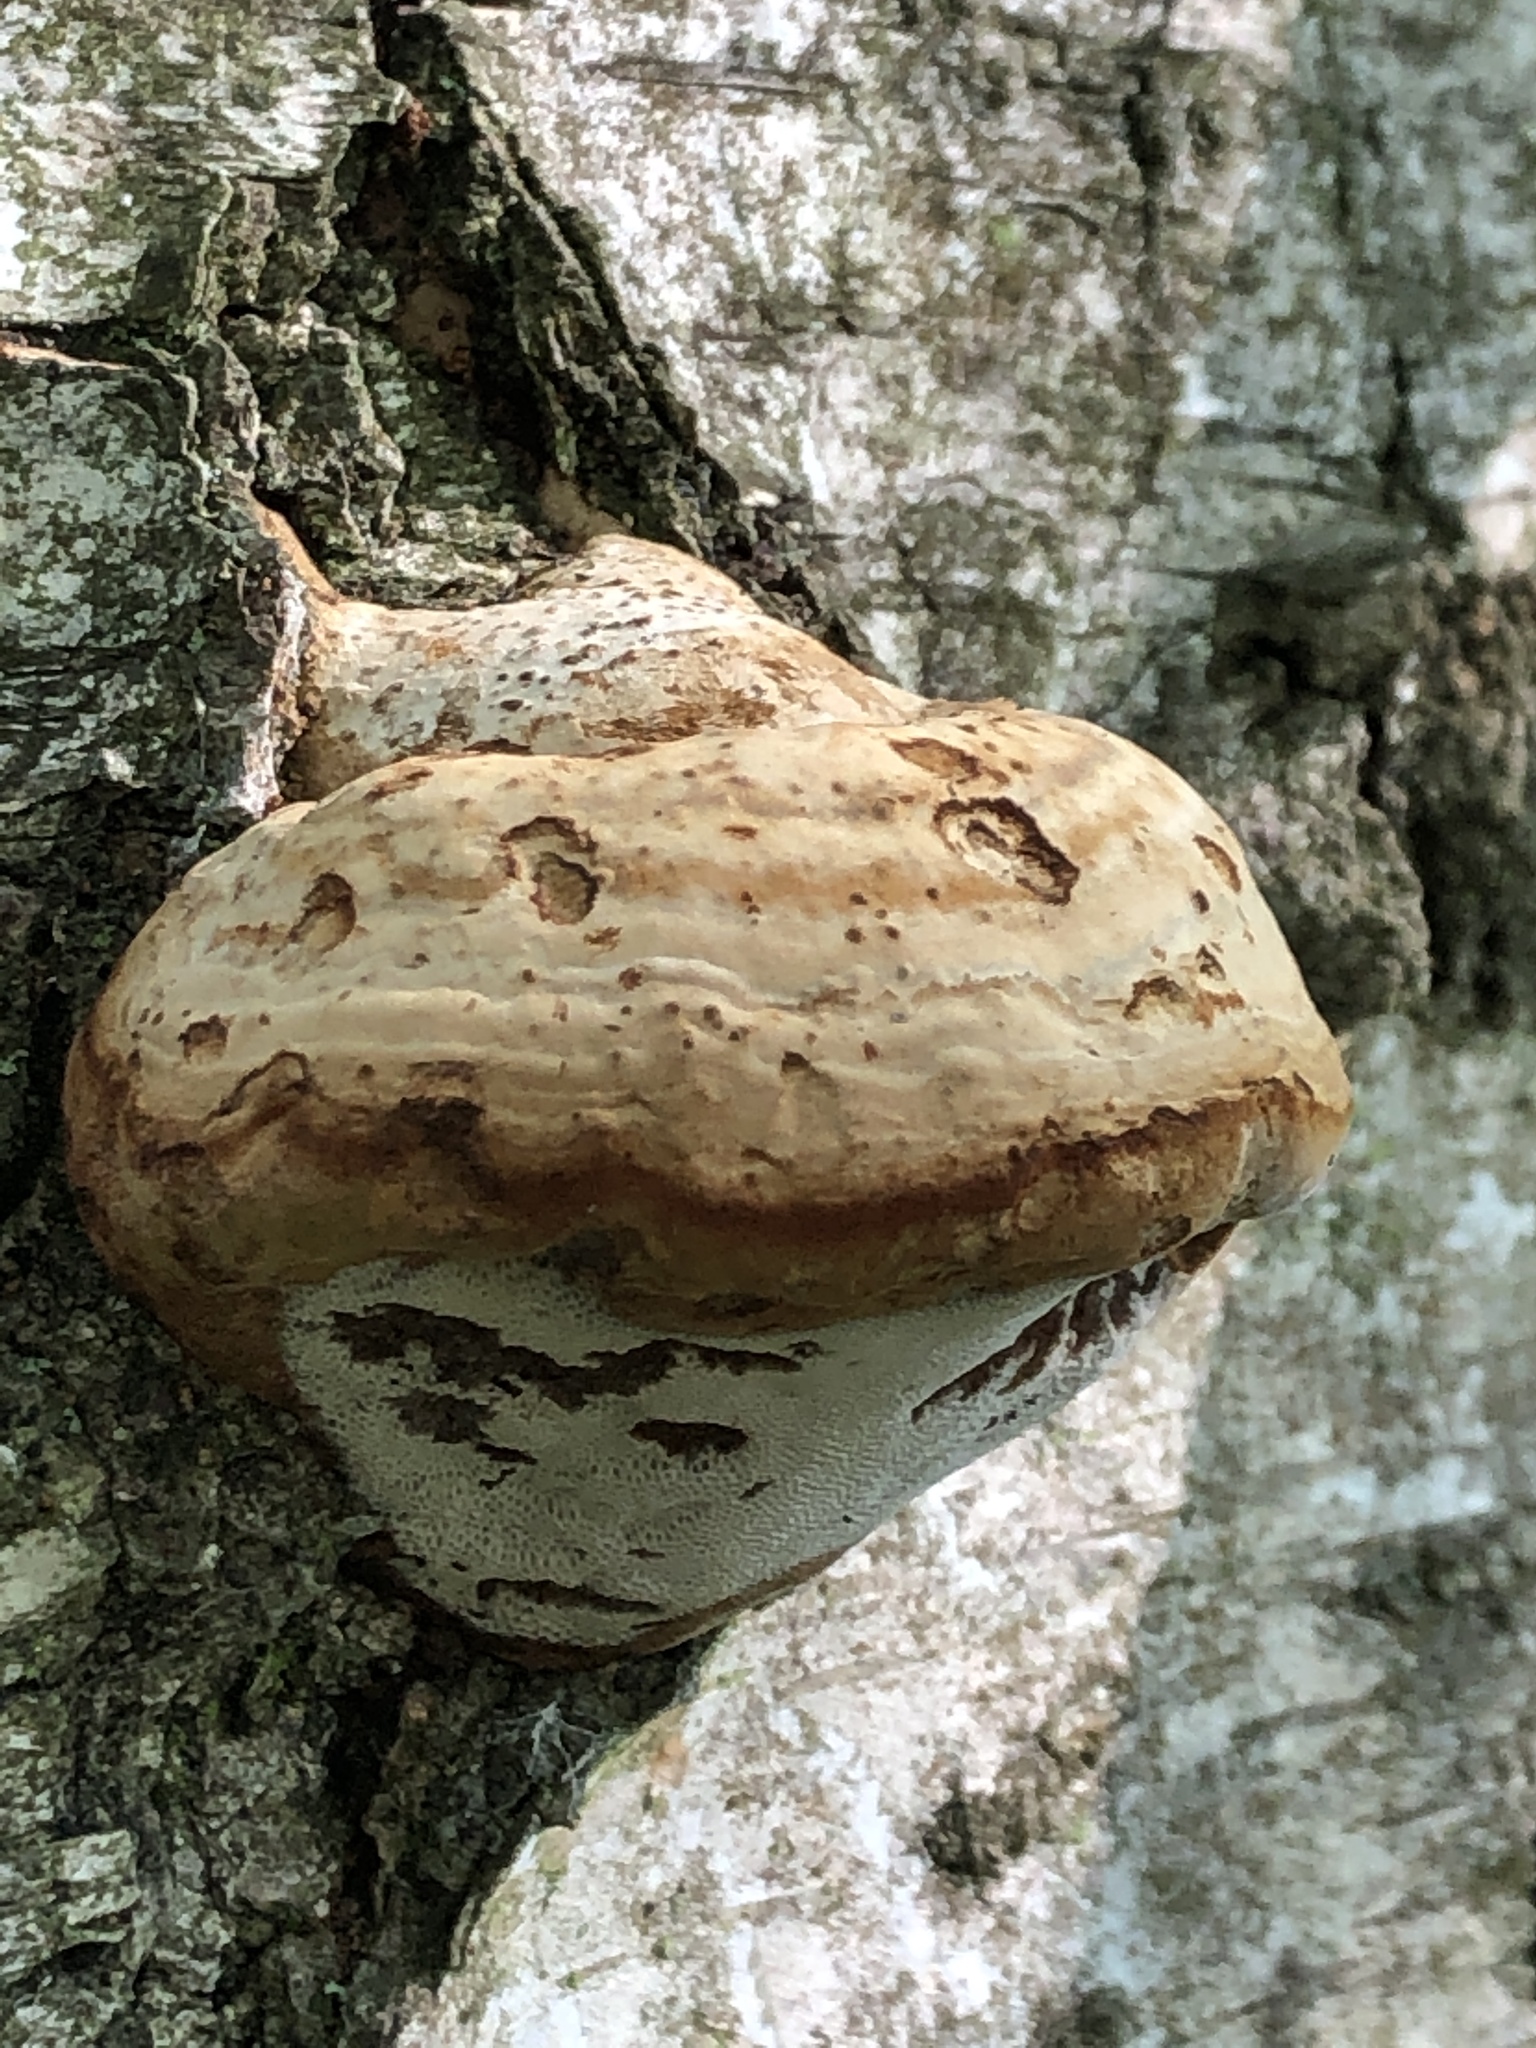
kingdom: Fungi
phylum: Basidiomycota
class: Agaricomycetes
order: Polyporales
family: Polyporaceae
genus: Fomes
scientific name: Fomes fomentarius
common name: Hoof fungus
